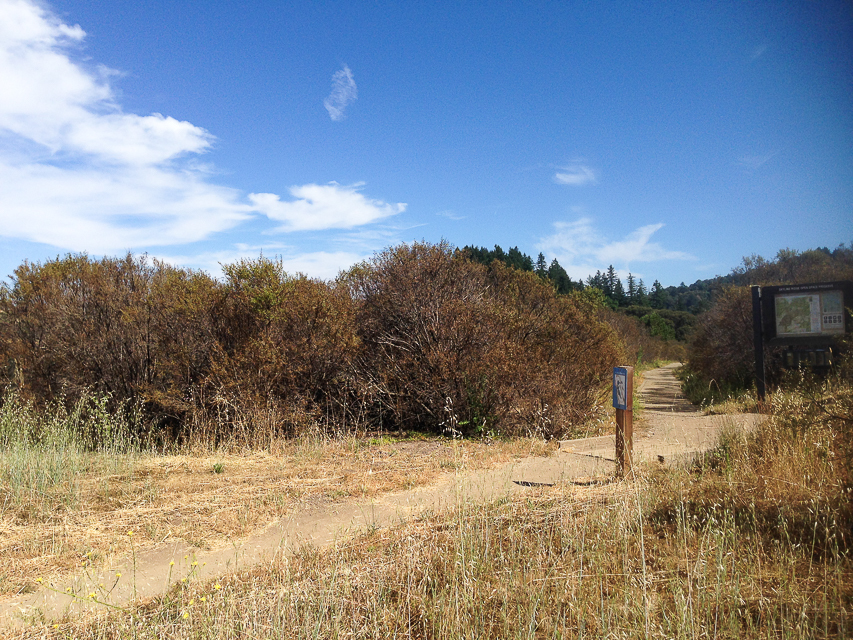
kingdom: Animalia
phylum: Arthropoda
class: Insecta
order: Coleoptera
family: Chrysomelidae
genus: Trirhabda
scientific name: Trirhabda flavolimbata
